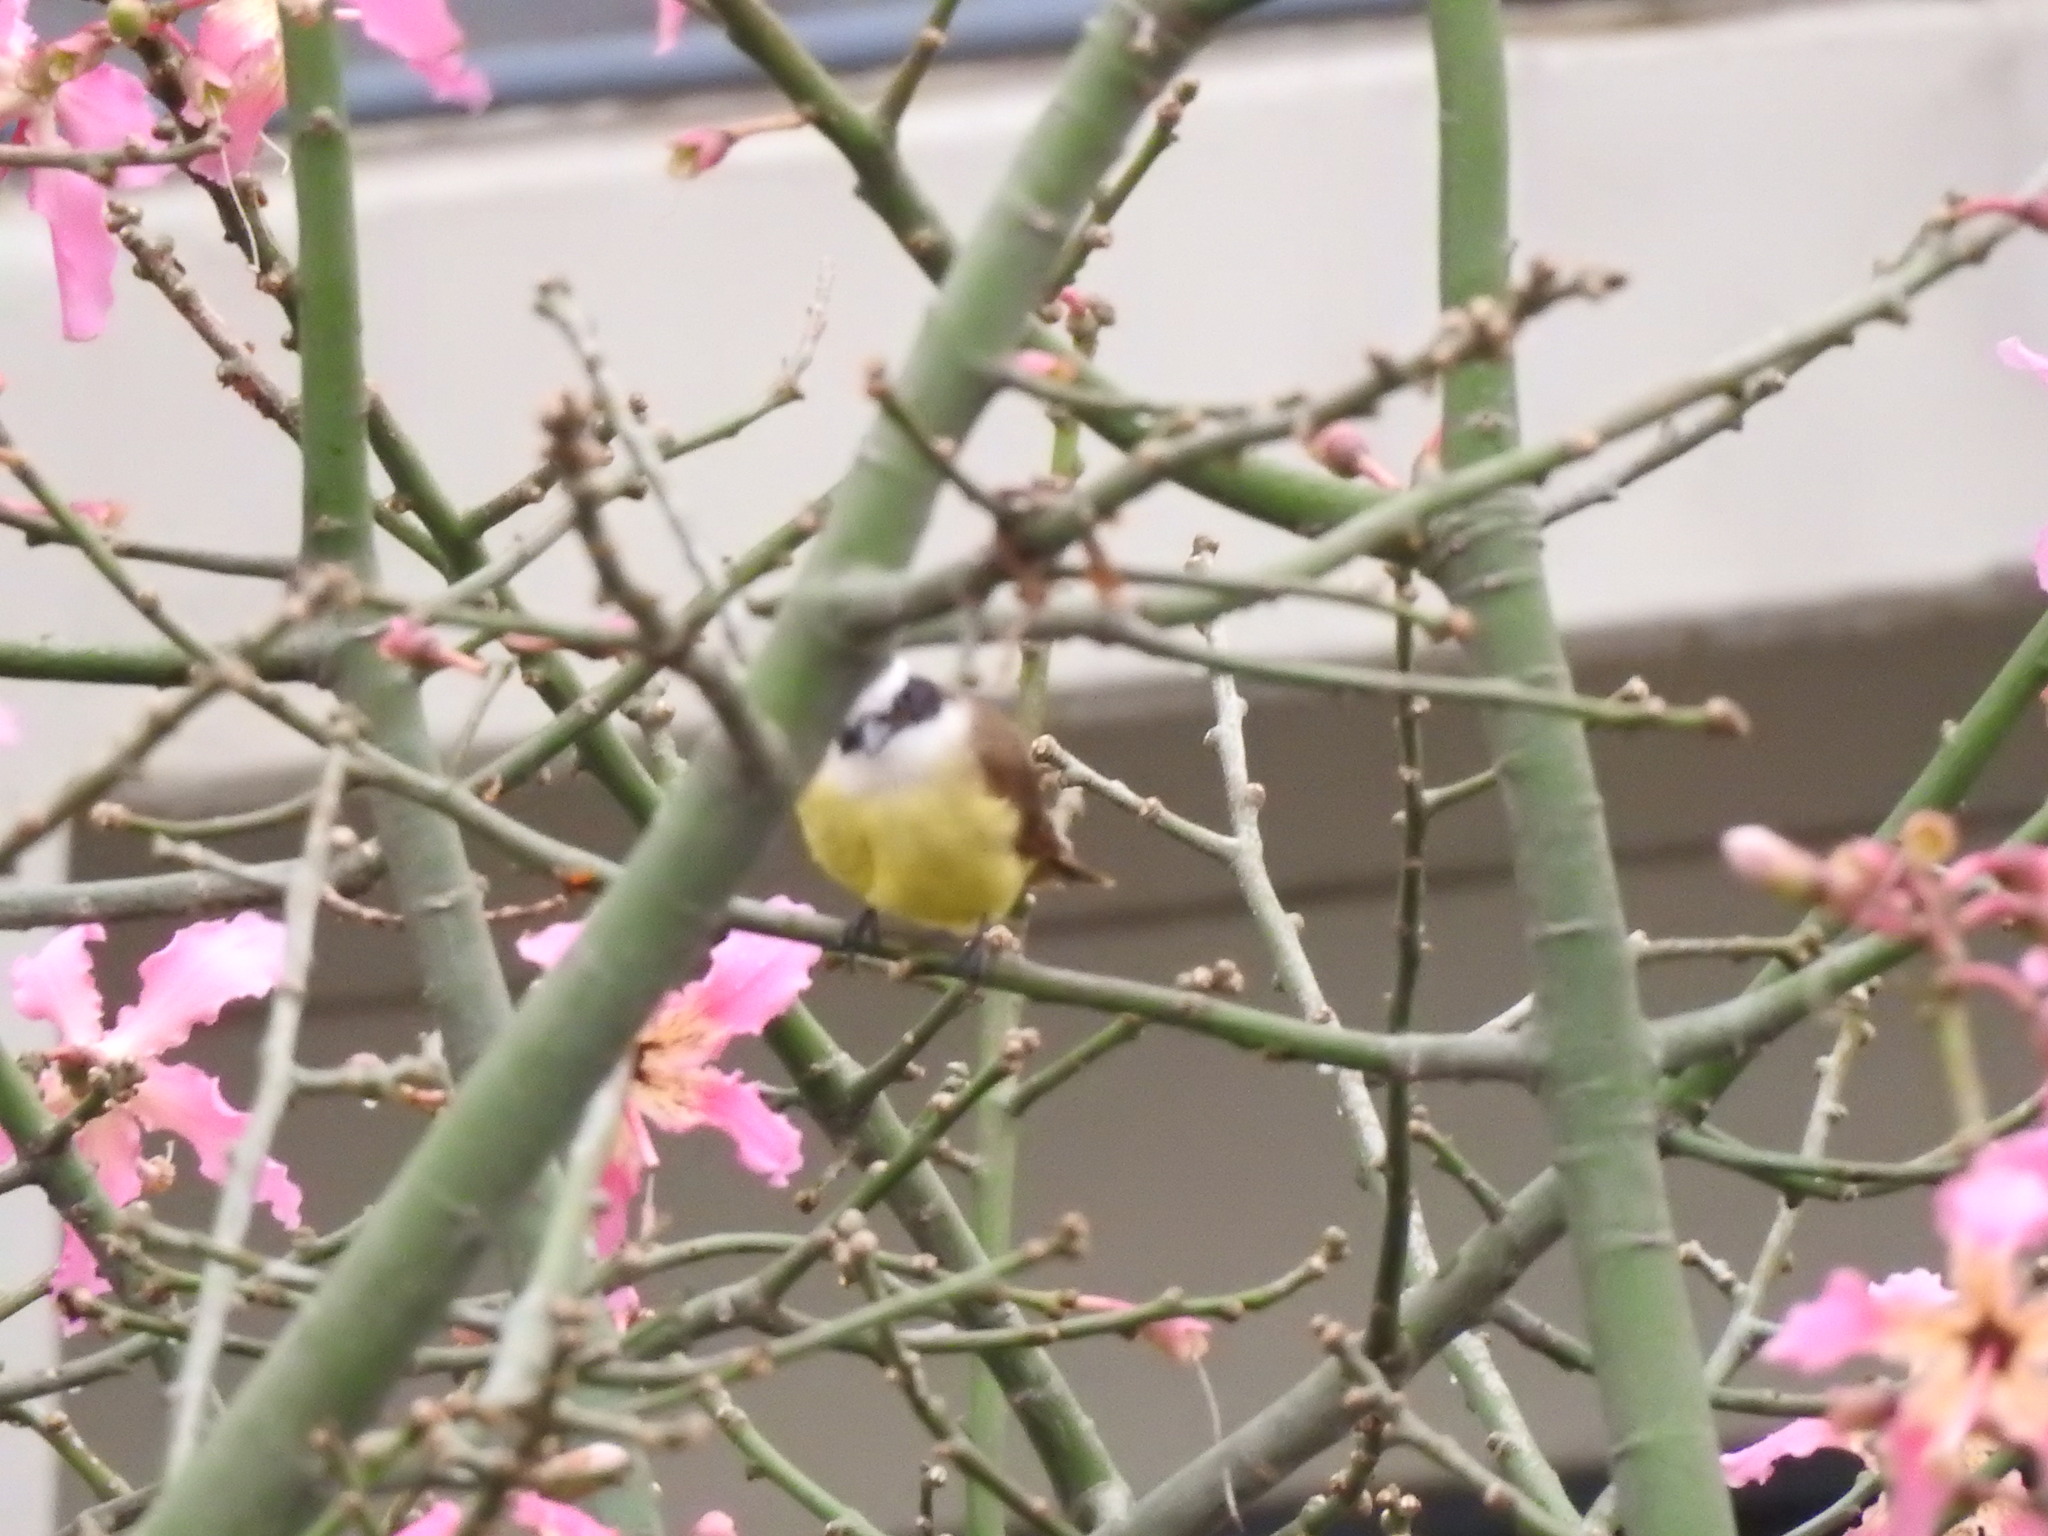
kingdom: Animalia
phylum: Chordata
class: Aves
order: Passeriformes
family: Tyrannidae
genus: Pitangus
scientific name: Pitangus sulphuratus
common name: Great kiskadee
